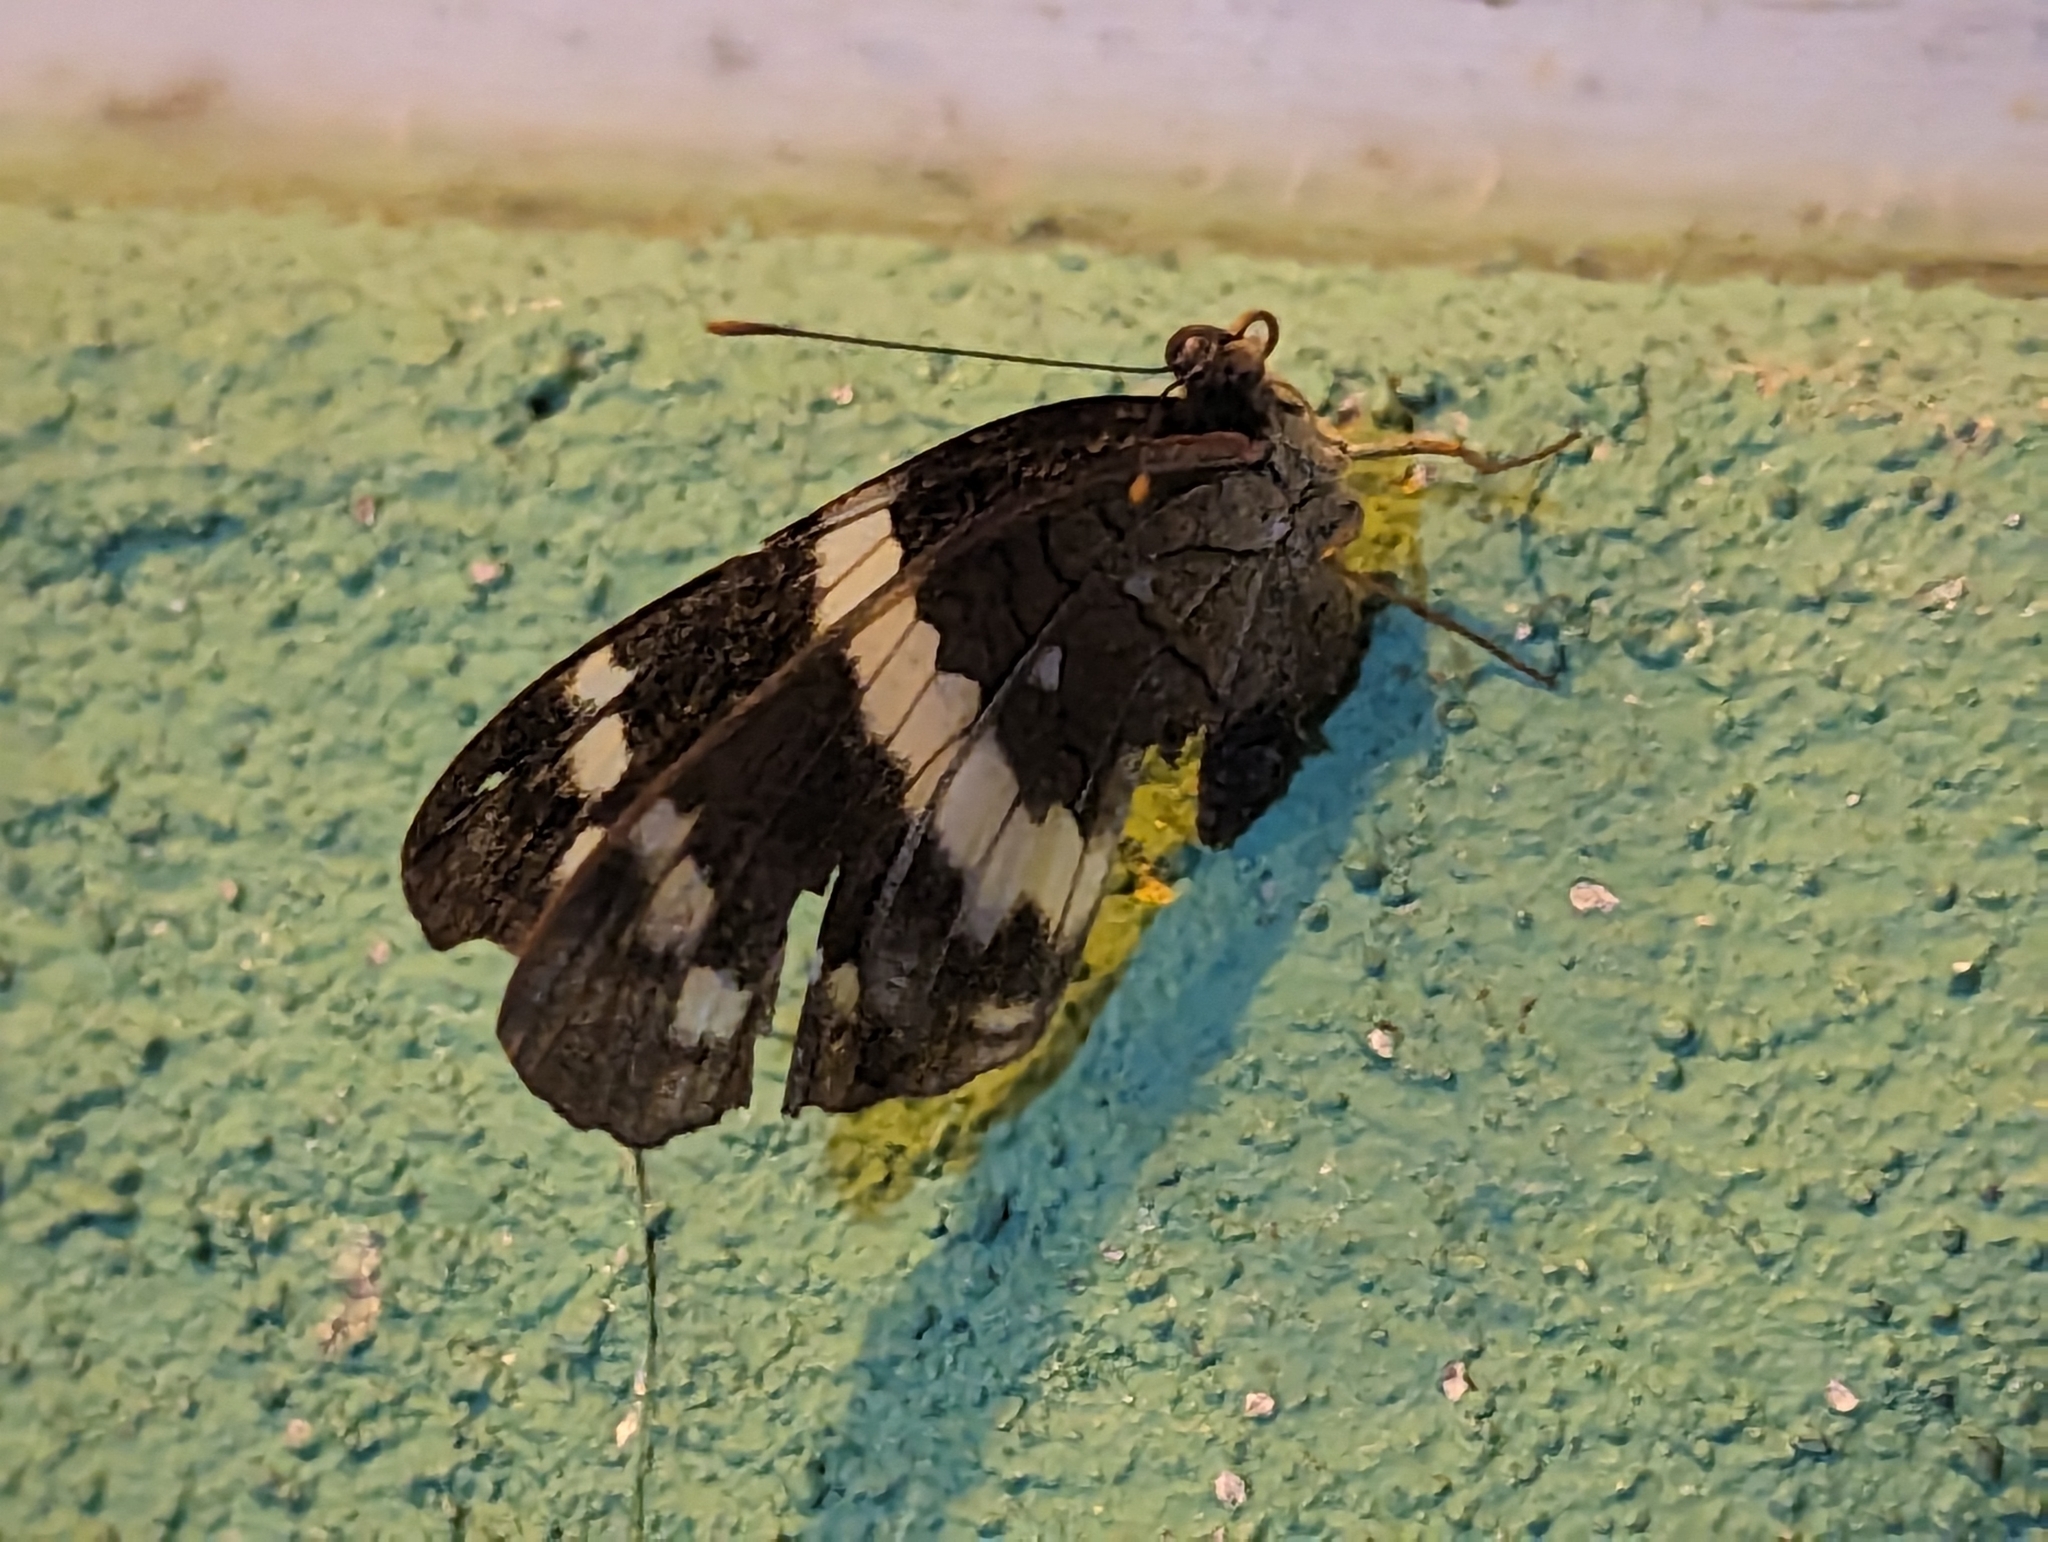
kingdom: Animalia
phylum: Arthropoda
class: Insecta
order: Lepidoptera
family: Nymphalidae
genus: Anartia
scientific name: Anartia fatima
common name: Banded peacock
